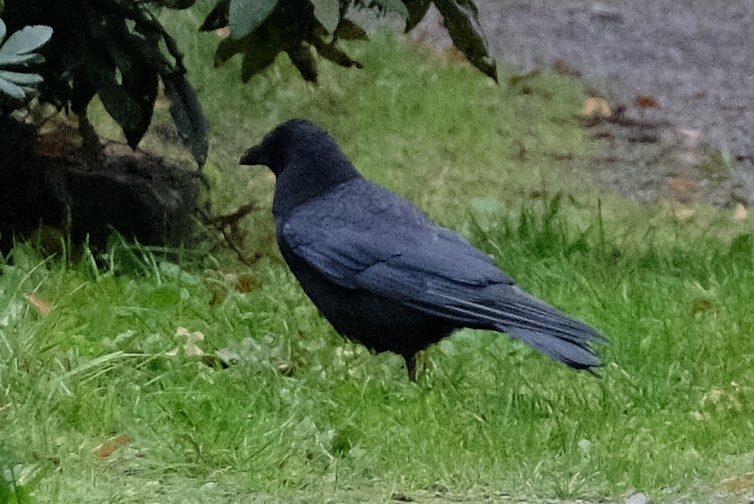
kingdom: Animalia
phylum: Chordata
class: Aves
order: Passeriformes
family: Corvidae
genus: Corvus
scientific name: Corvus corone
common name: Carrion crow
